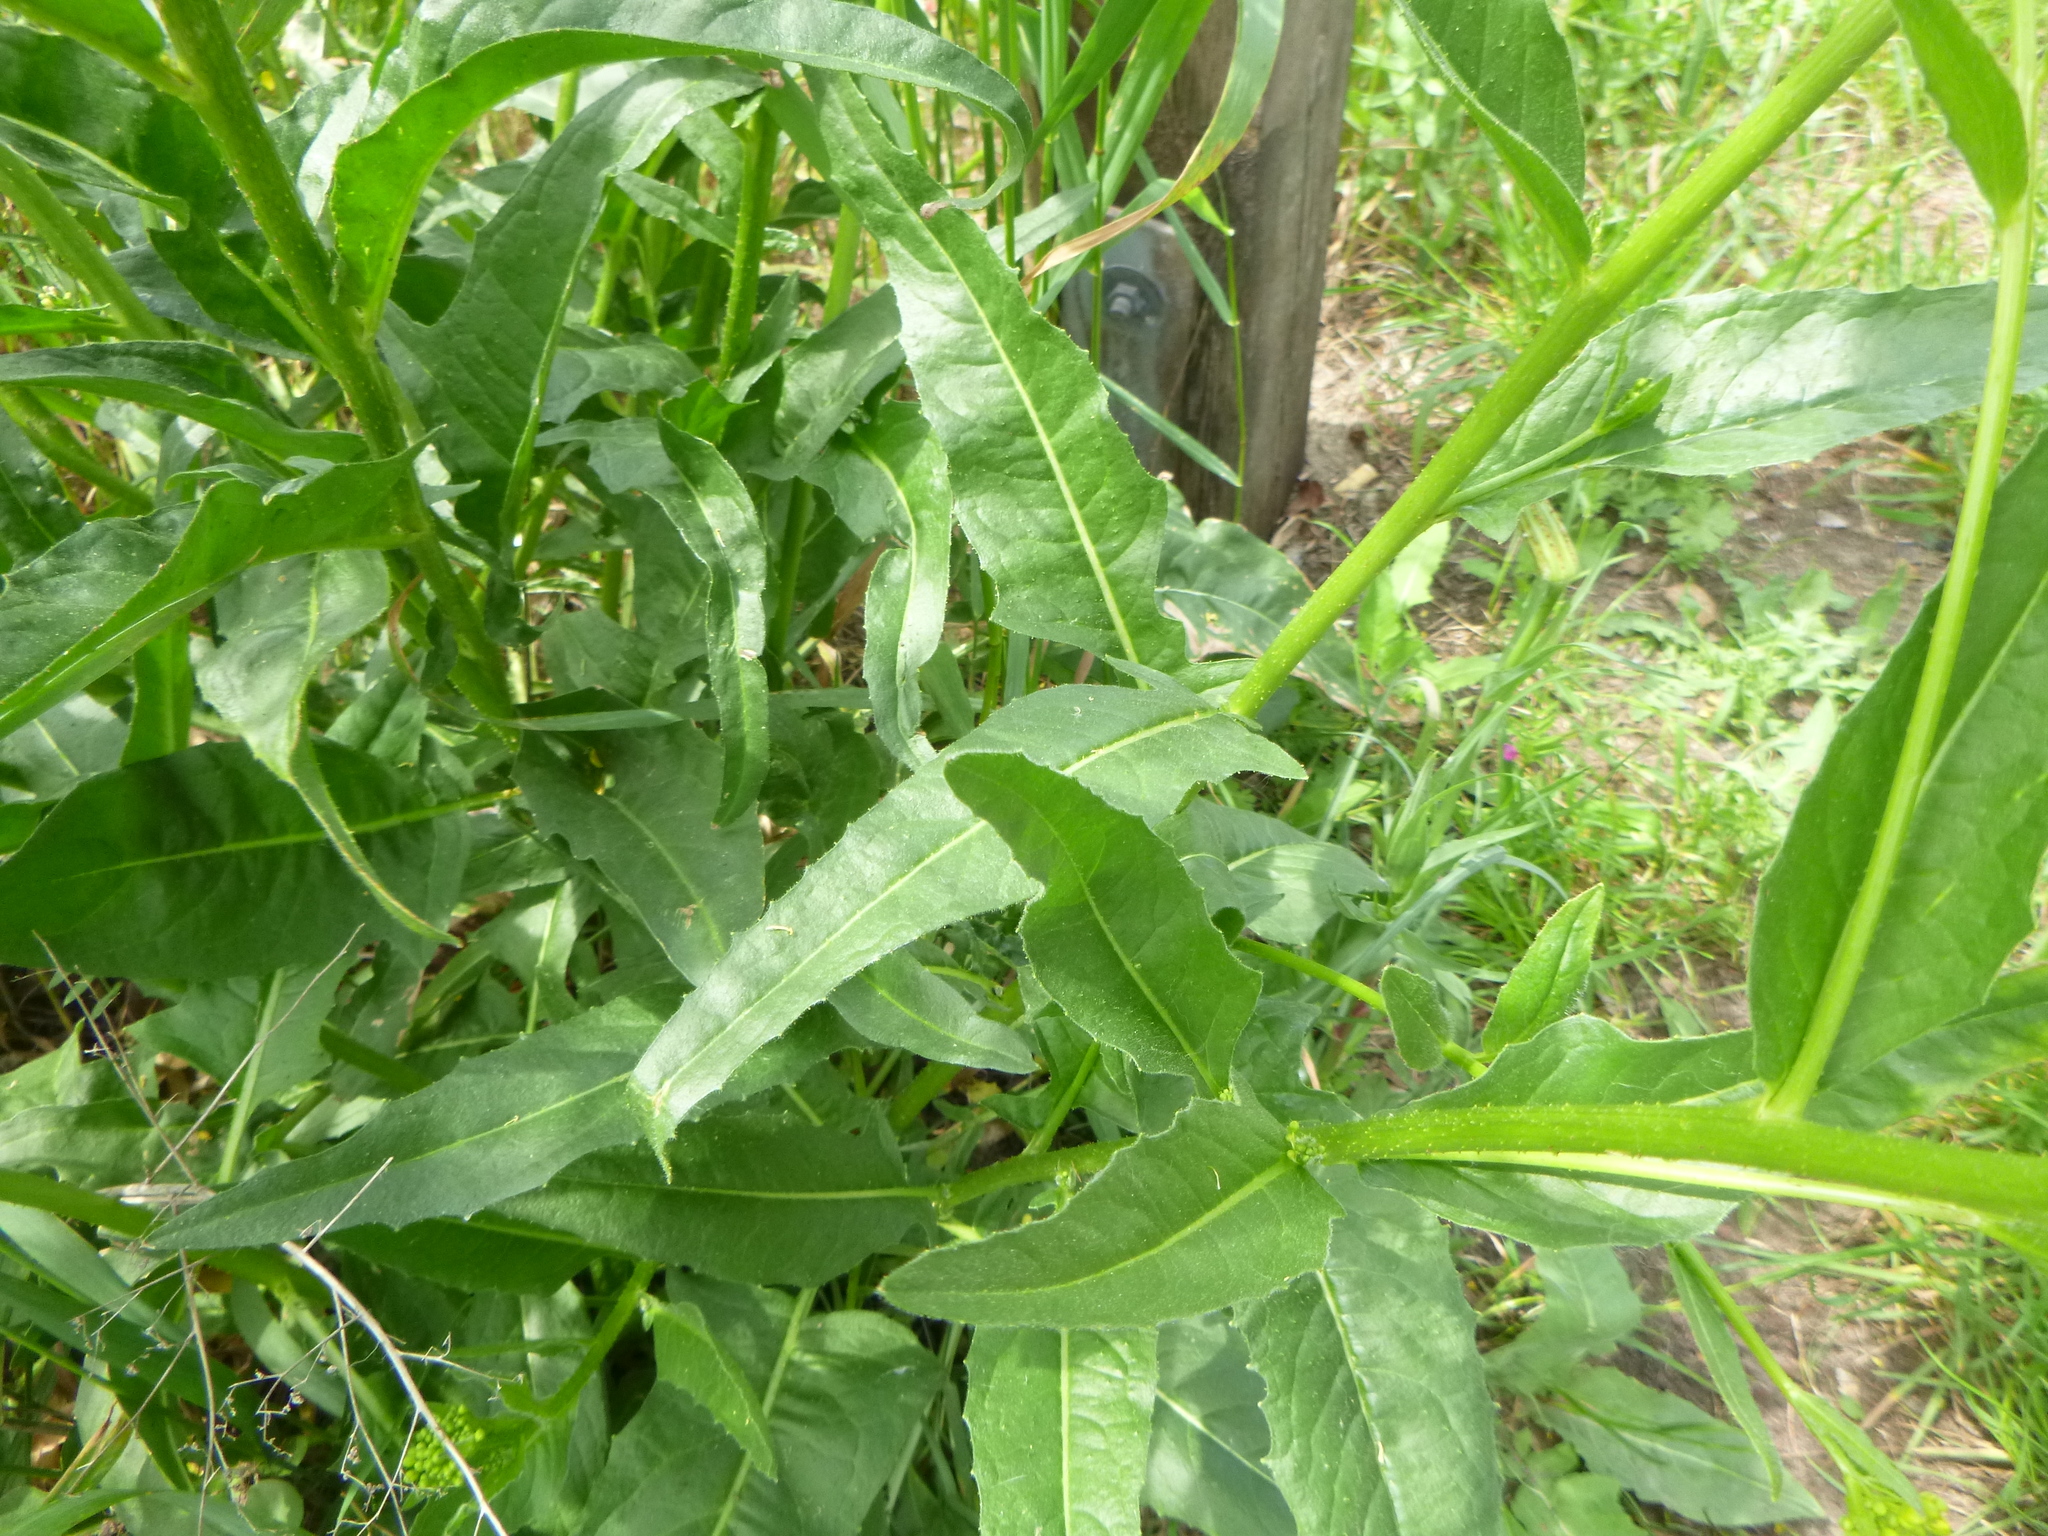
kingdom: Plantae
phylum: Tracheophyta
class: Magnoliopsida
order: Brassicales
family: Brassicaceae
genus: Bunias
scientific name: Bunias orientalis
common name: Warty-cabbage
